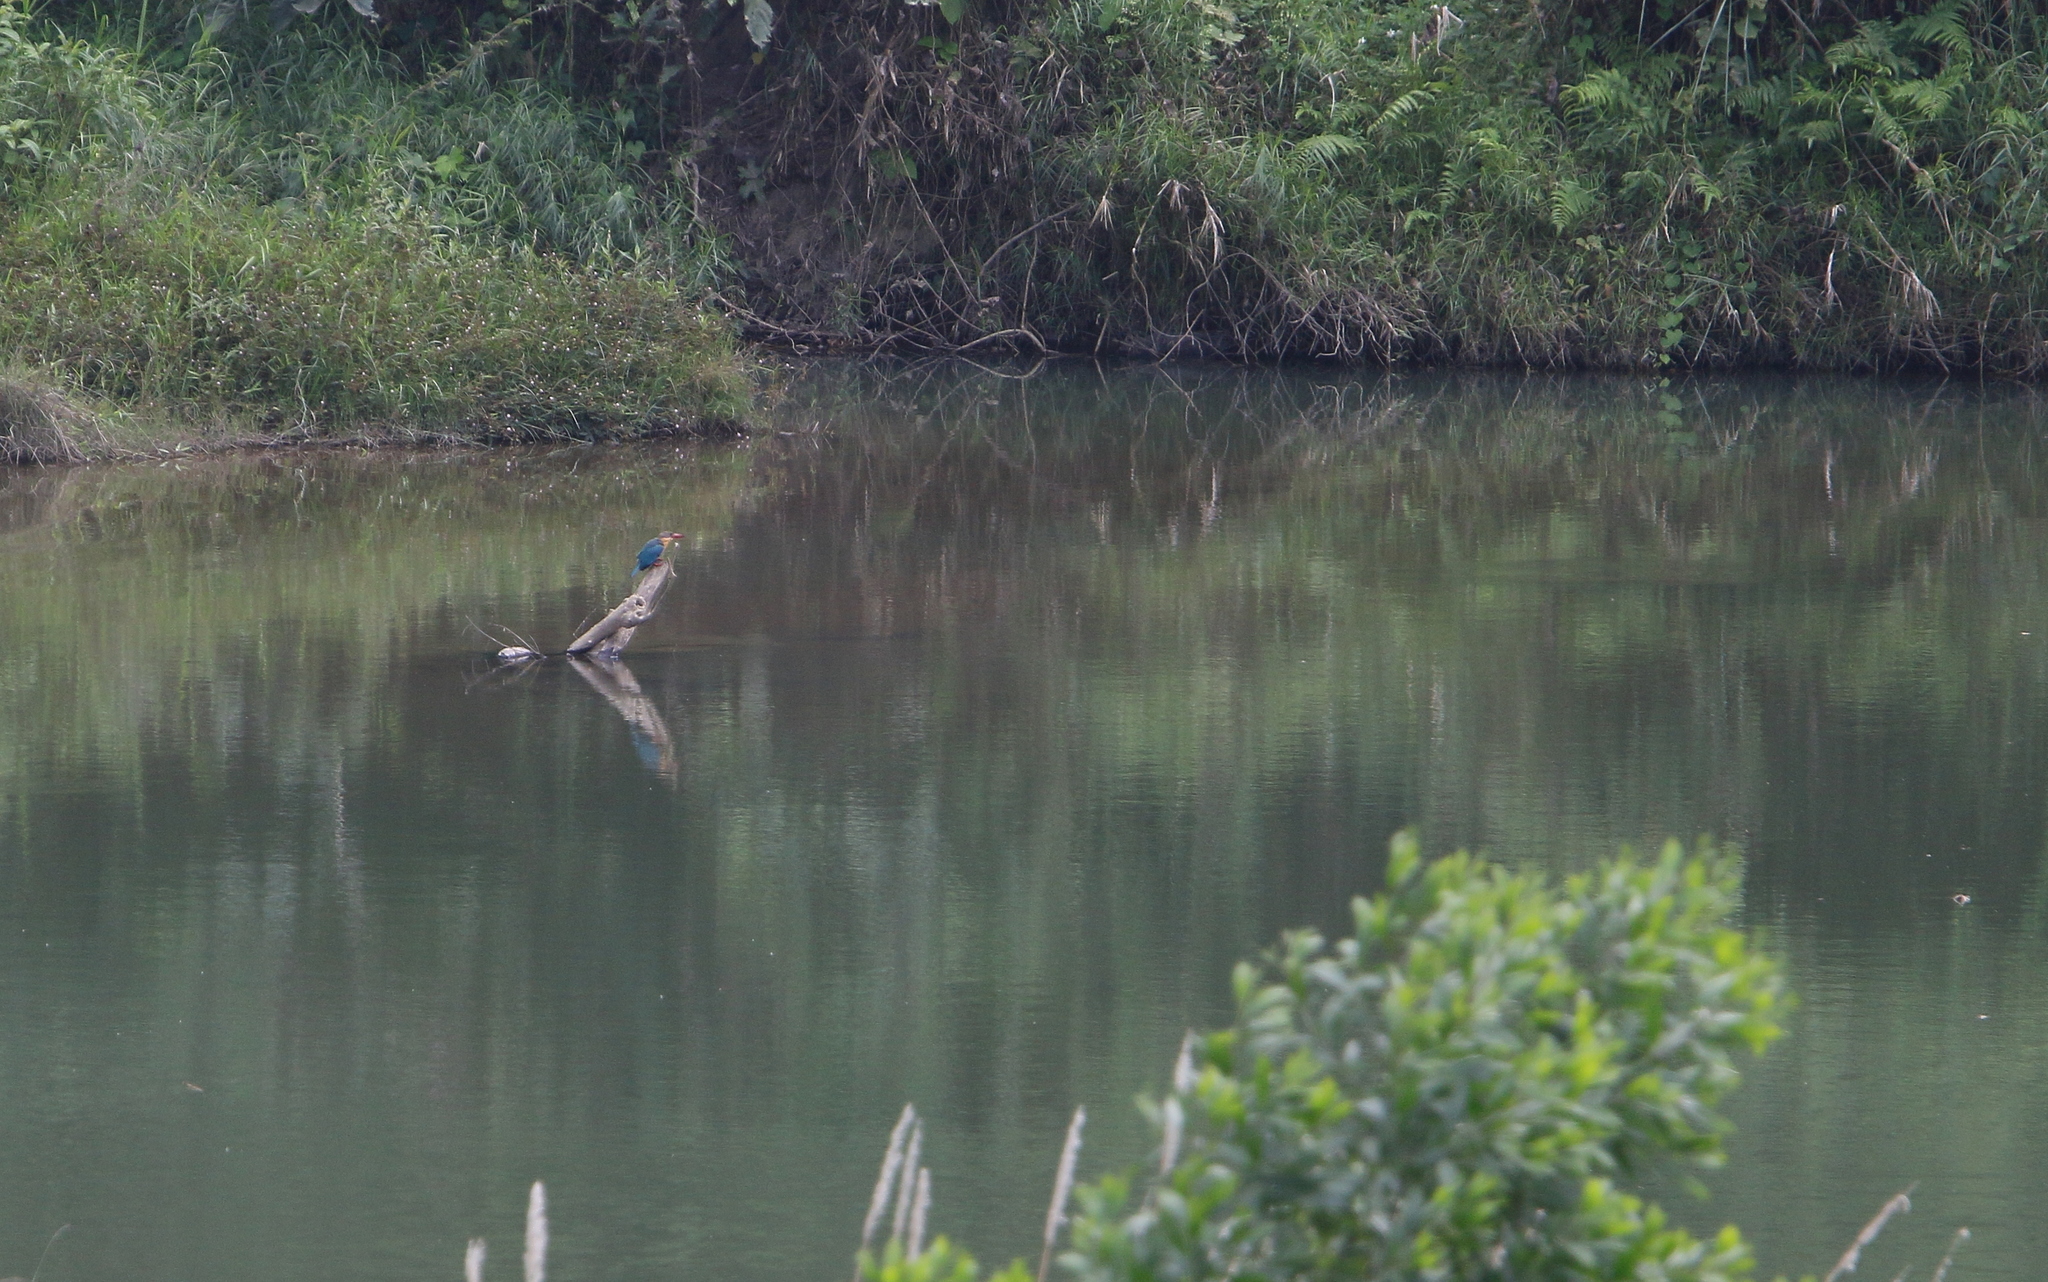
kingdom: Animalia
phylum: Chordata
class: Aves
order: Coraciiformes
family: Alcedinidae
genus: Pelargopsis
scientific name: Pelargopsis capensis
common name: Stork-billed kingfisher
